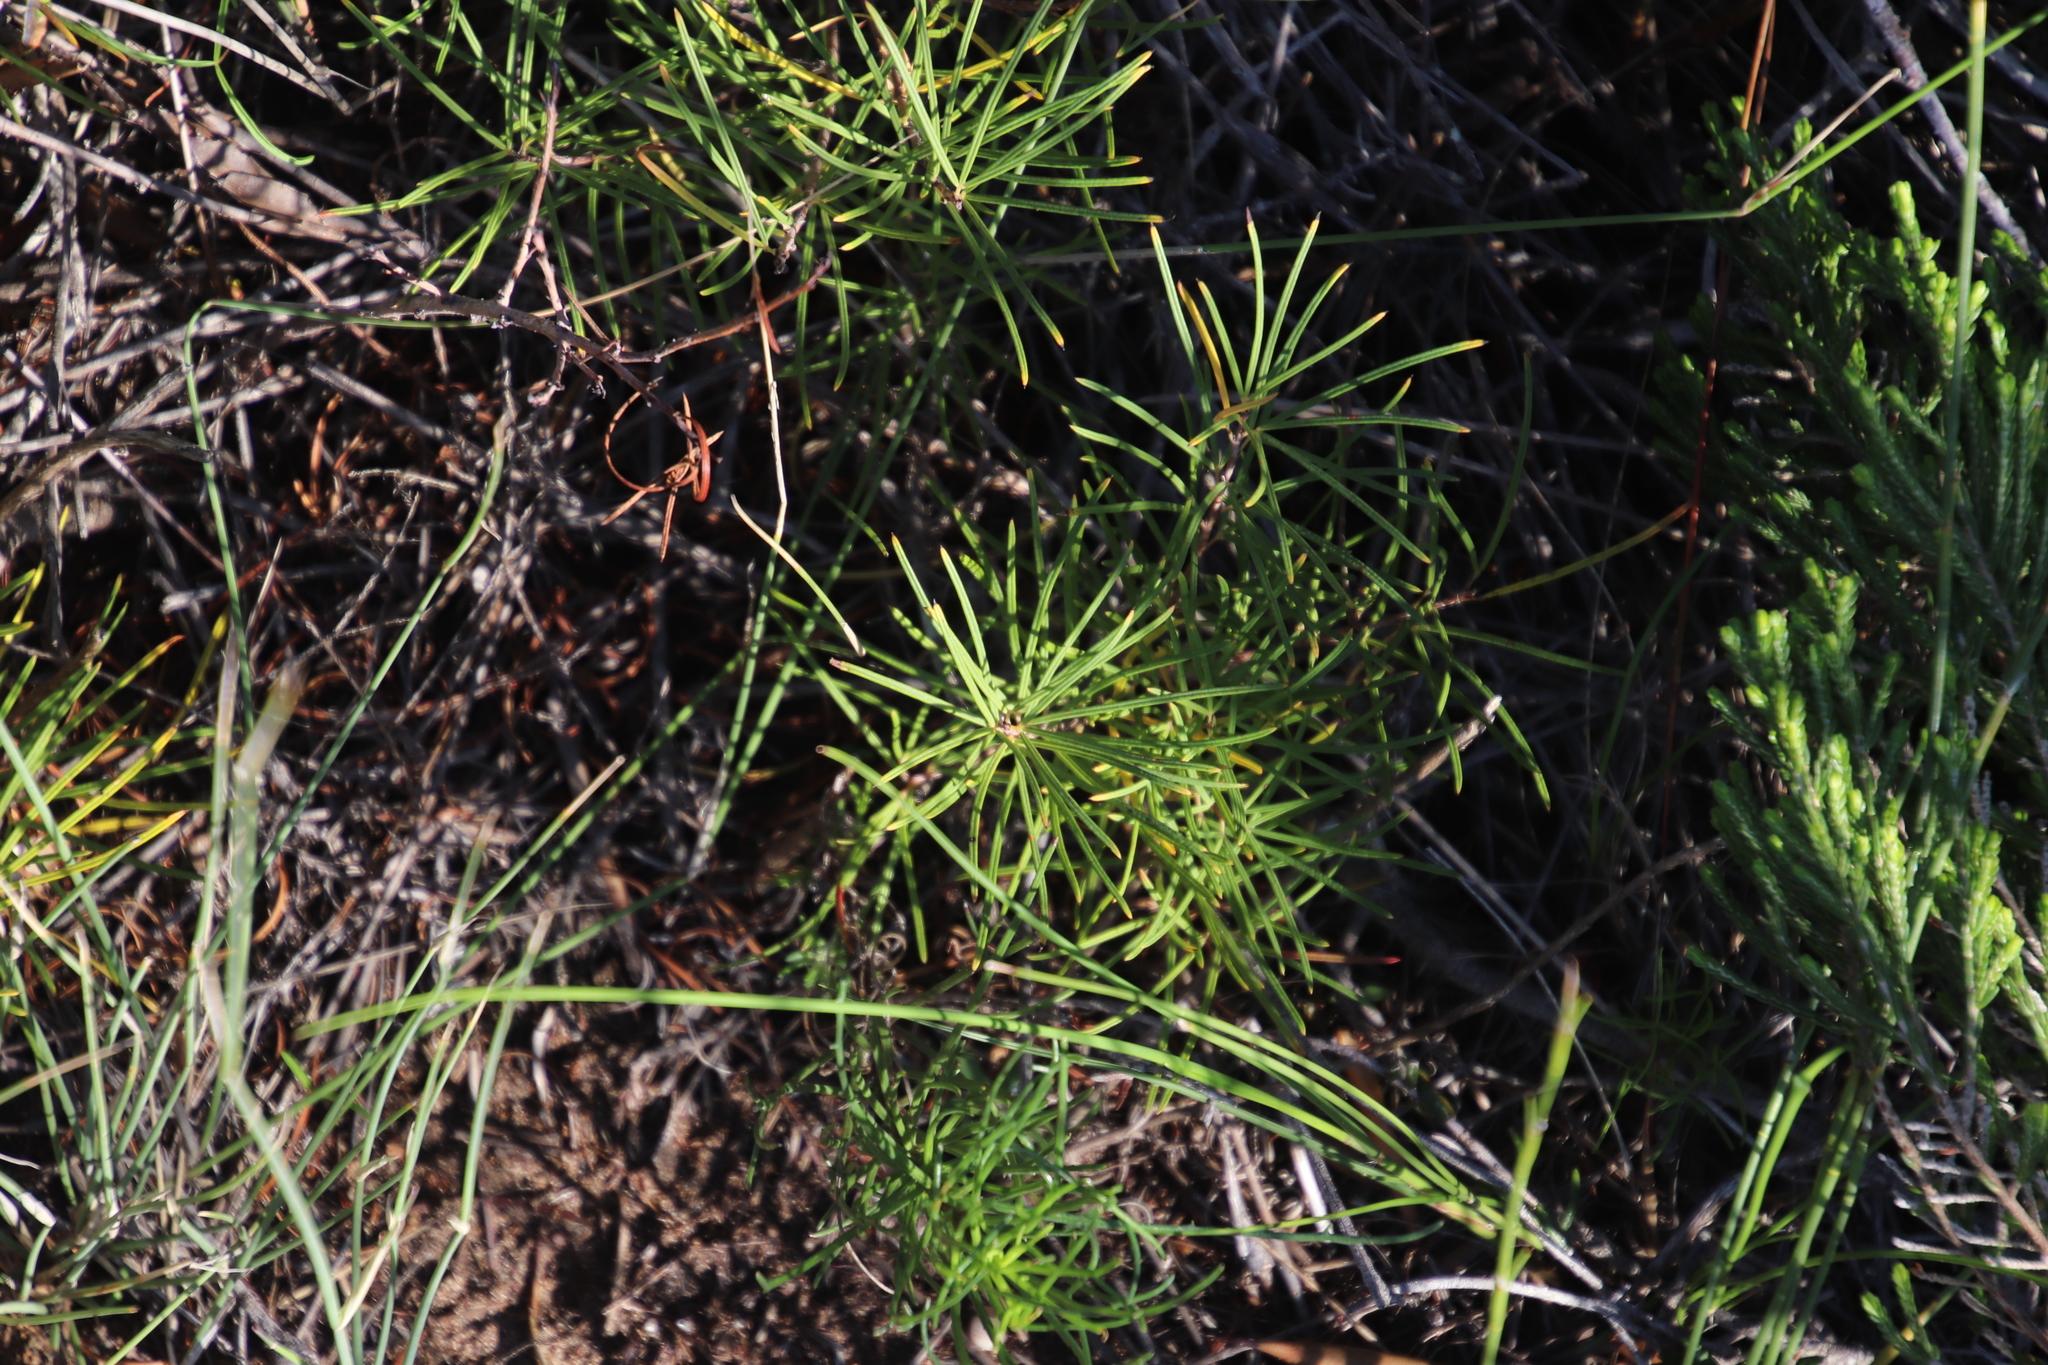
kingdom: Plantae
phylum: Tracheophyta
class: Magnoliopsida
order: Sapindales
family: Anacardiaceae
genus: Searsia
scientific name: Searsia rosmarinifolia
